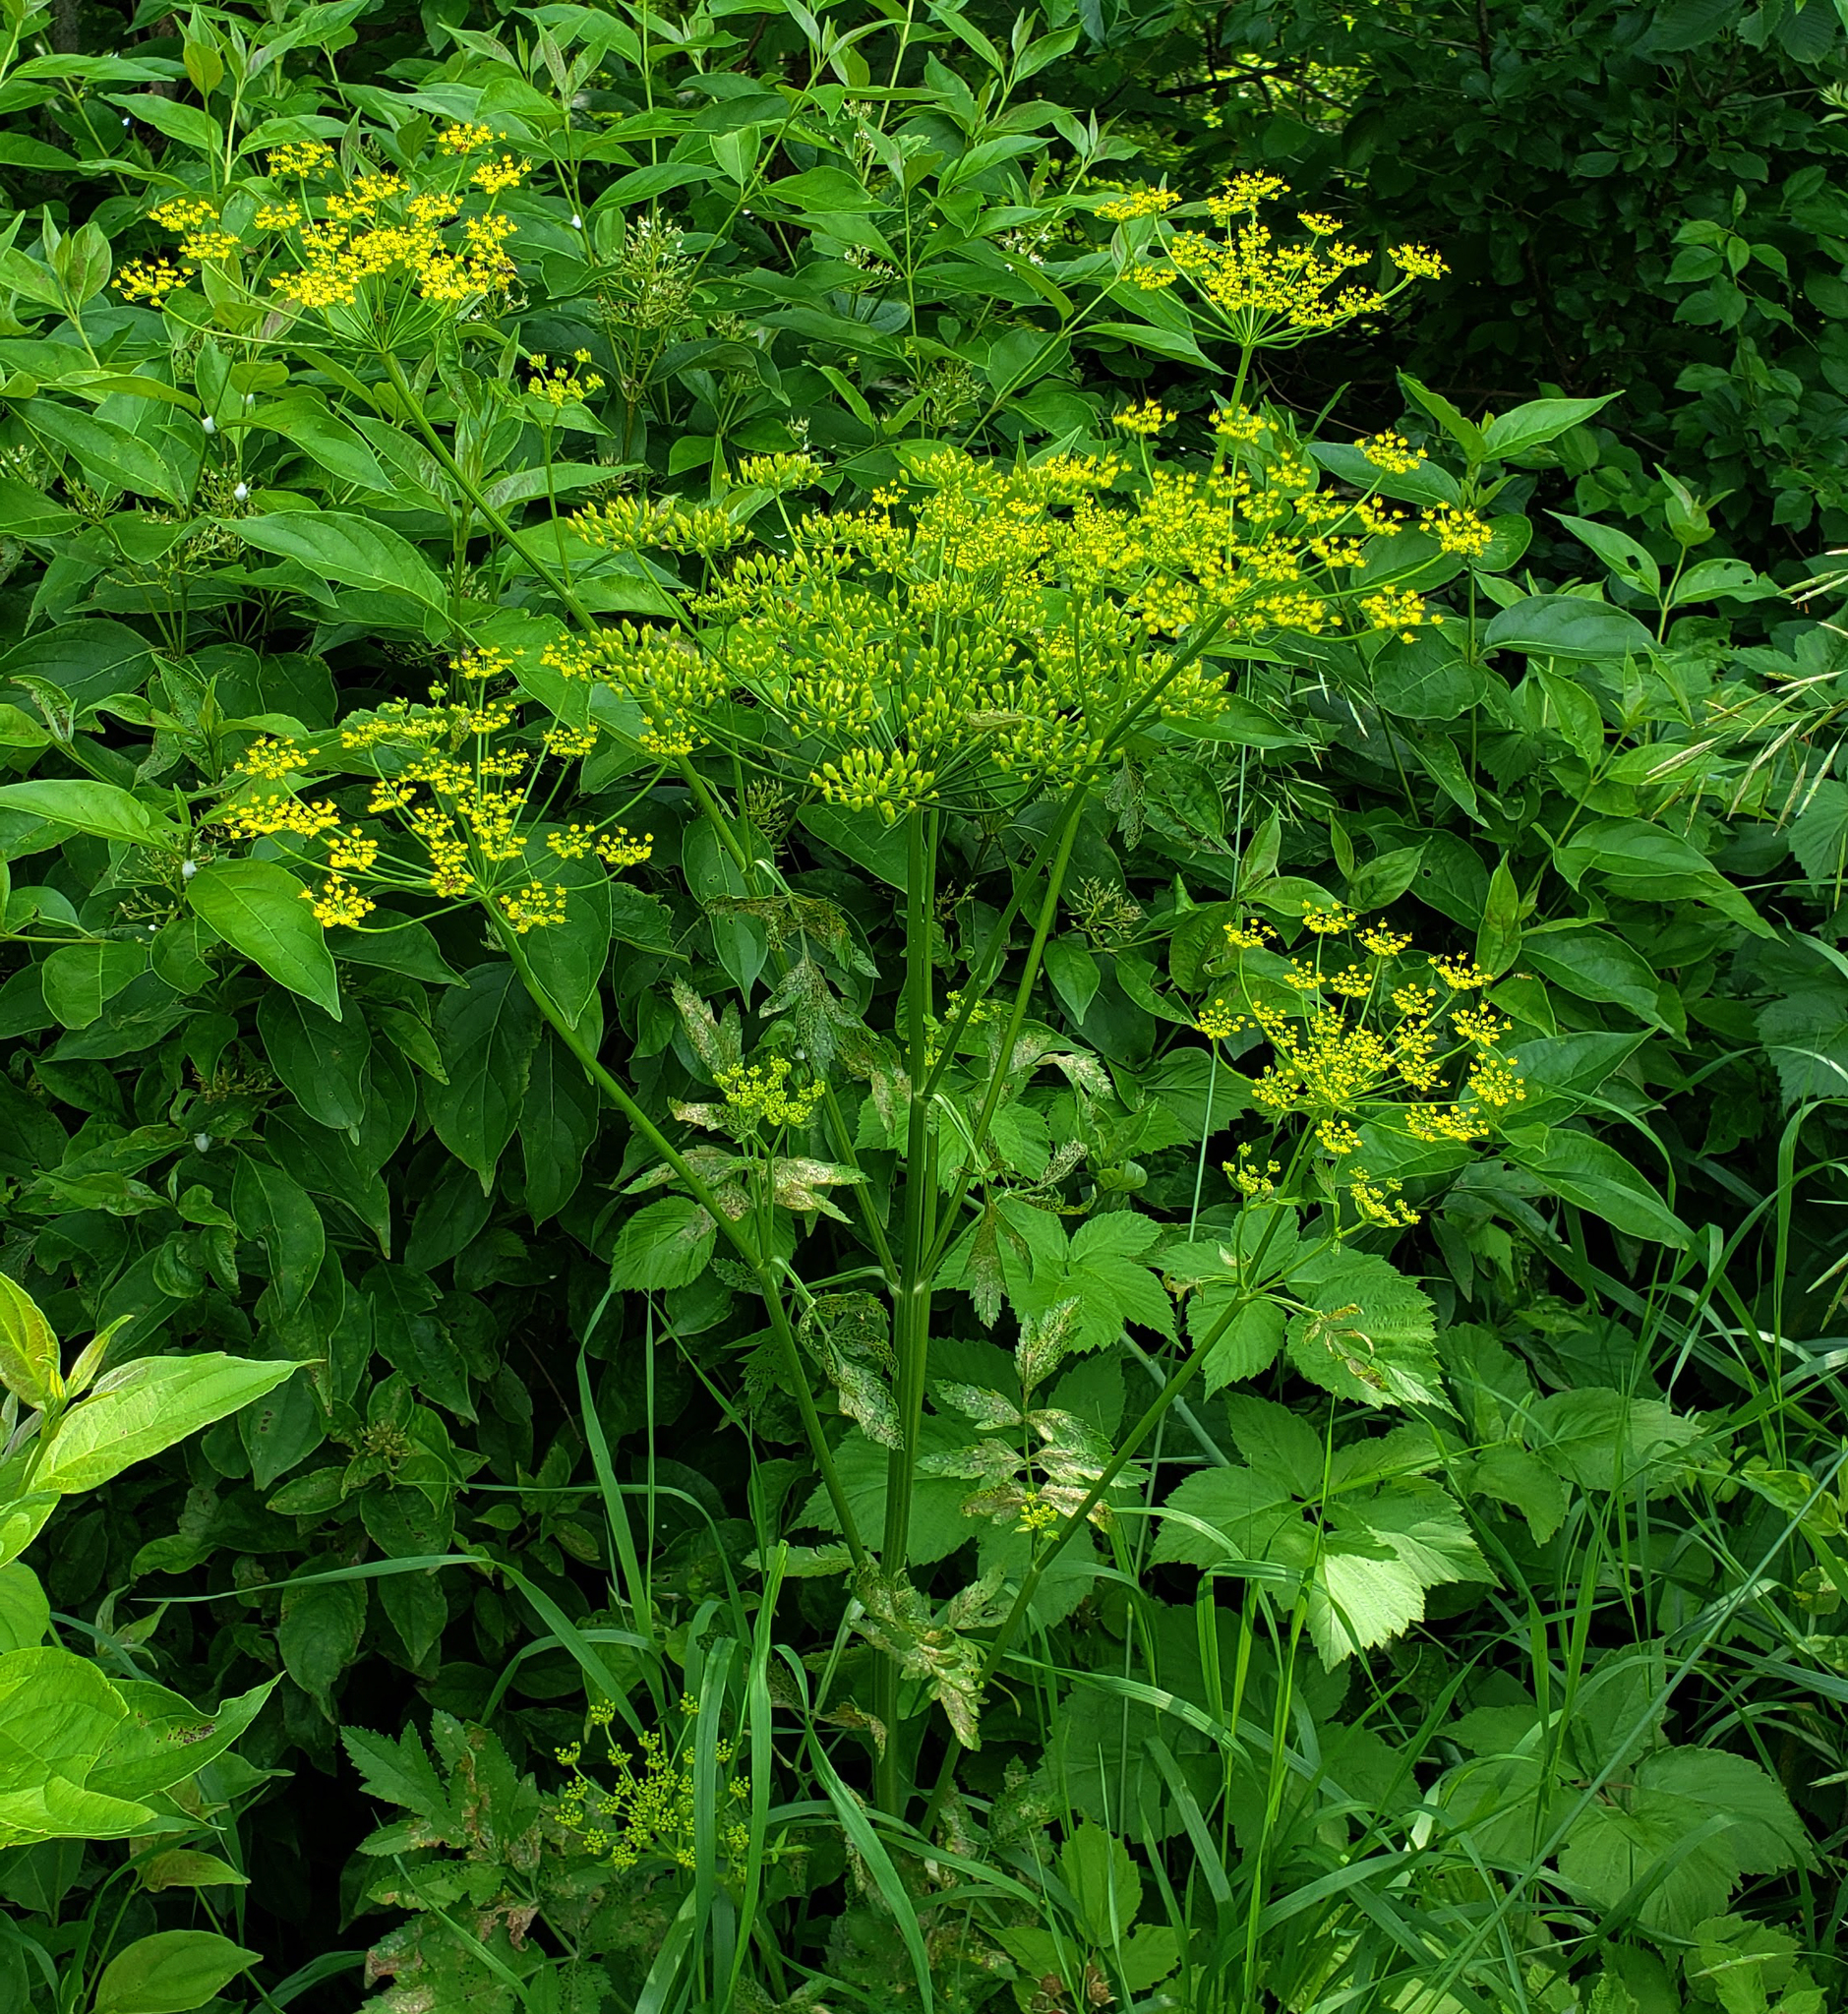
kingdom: Plantae
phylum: Tracheophyta
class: Magnoliopsida
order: Apiales
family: Apiaceae
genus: Pastinaca
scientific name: Pastinaca sativa
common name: Wild parsnip
